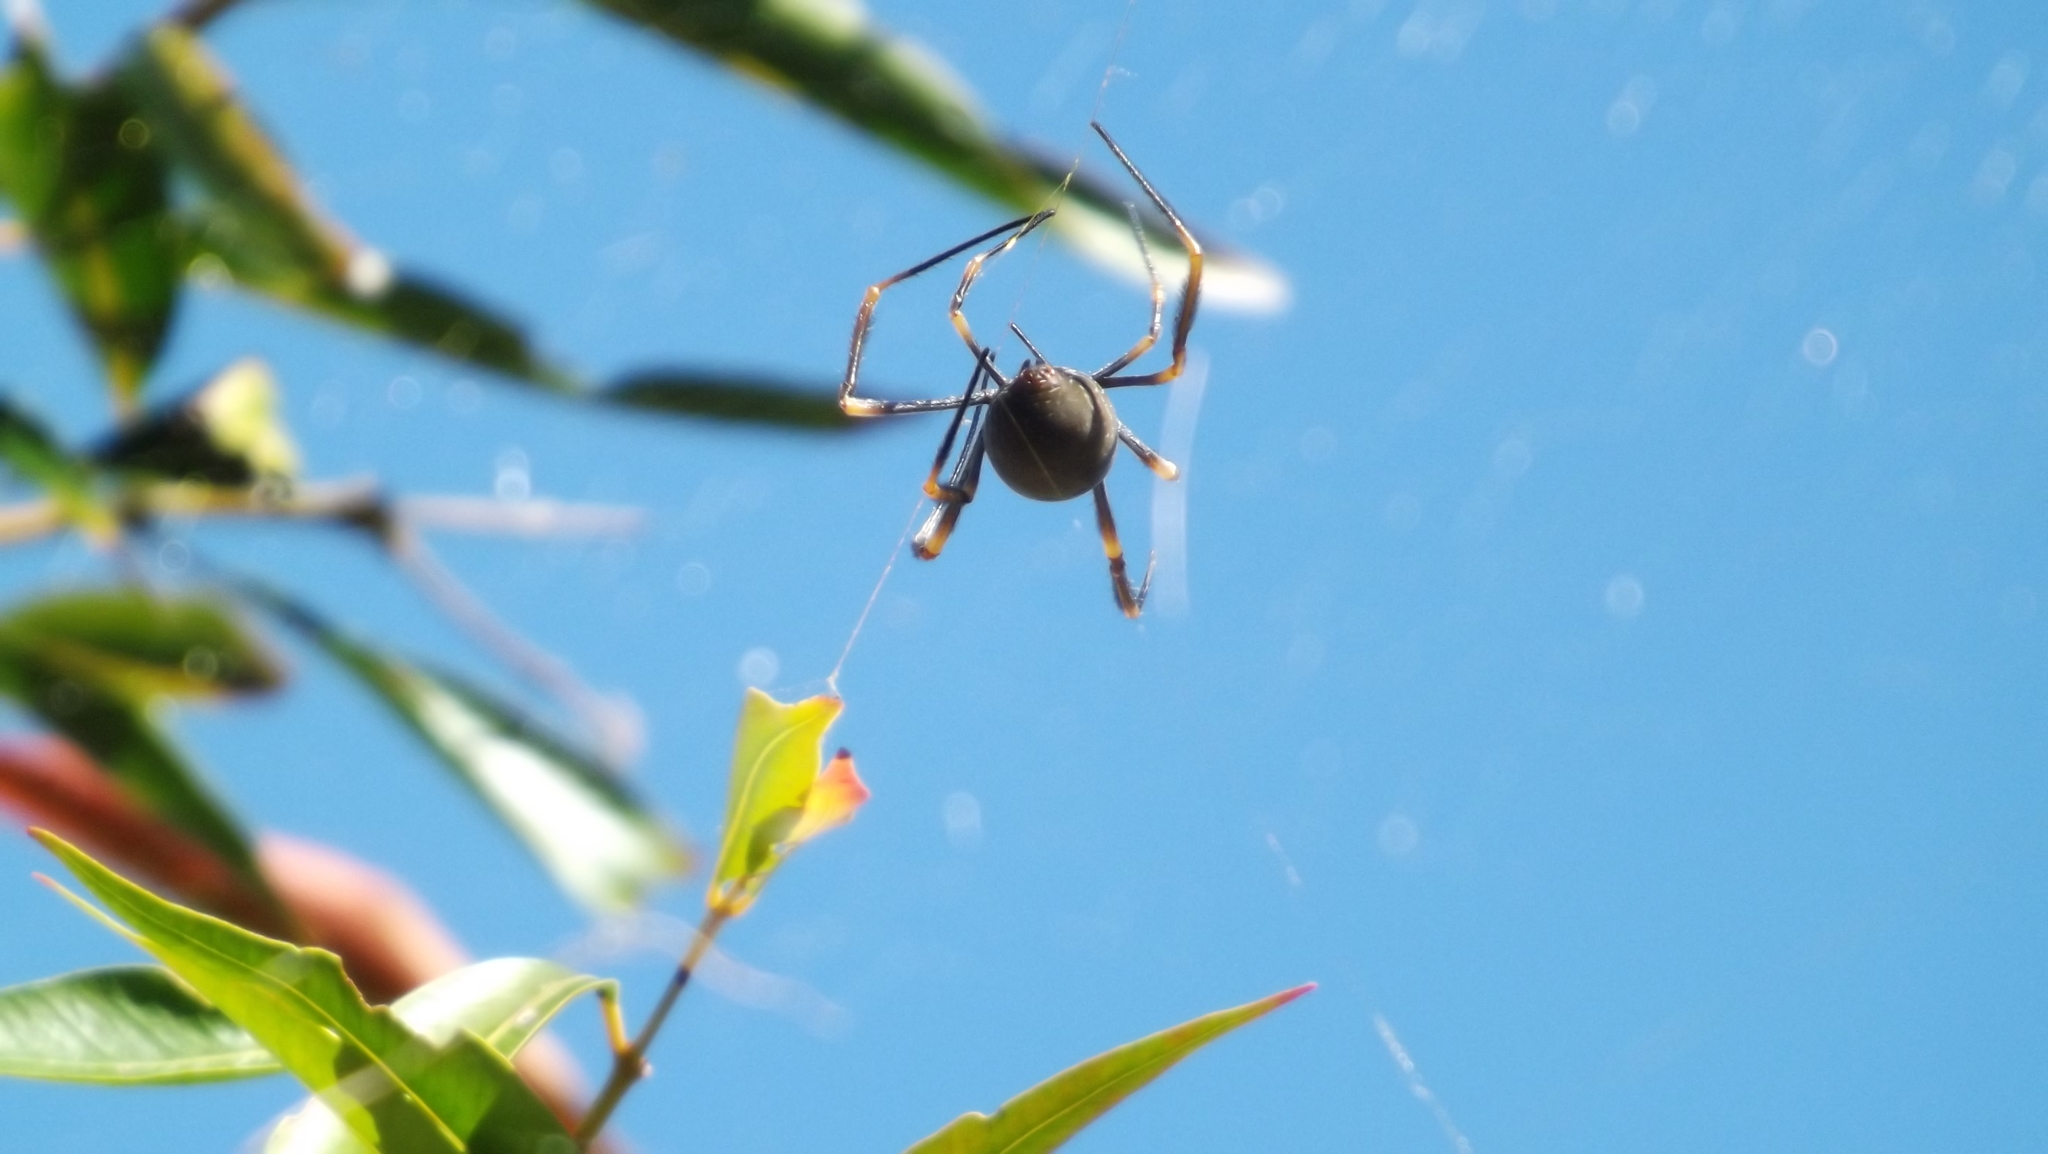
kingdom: Animalia
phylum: Arthropoda
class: Arachnida
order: Araneae
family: Araneidae
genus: Trichonephila
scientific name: Trichonephila plumipes
